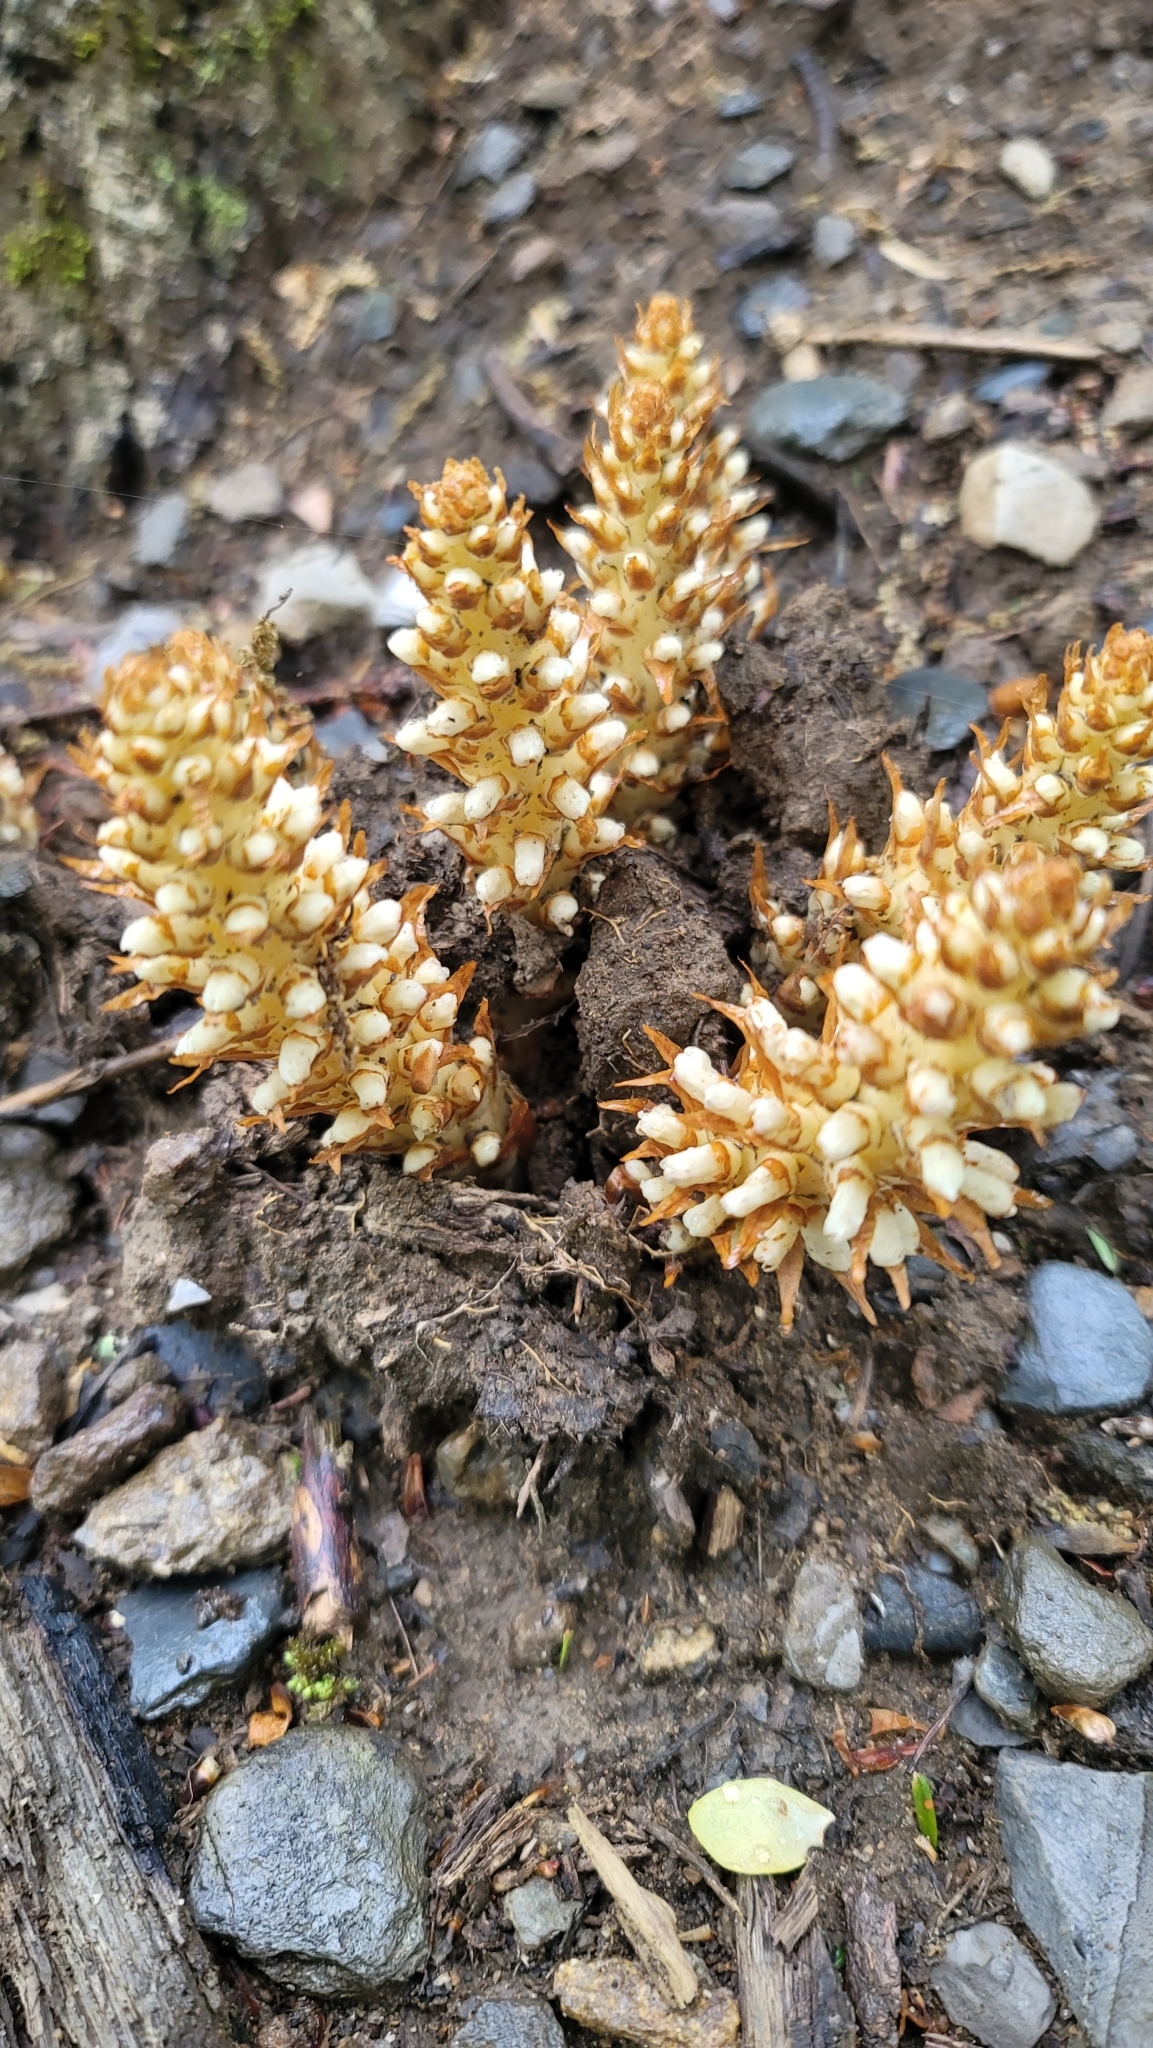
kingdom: Plantae
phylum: Tracheophyta
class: Magnoliopsida
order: Lamiales
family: Orobanchaceae
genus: Conopholis
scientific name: Conopholis americana
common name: American cancer-root
